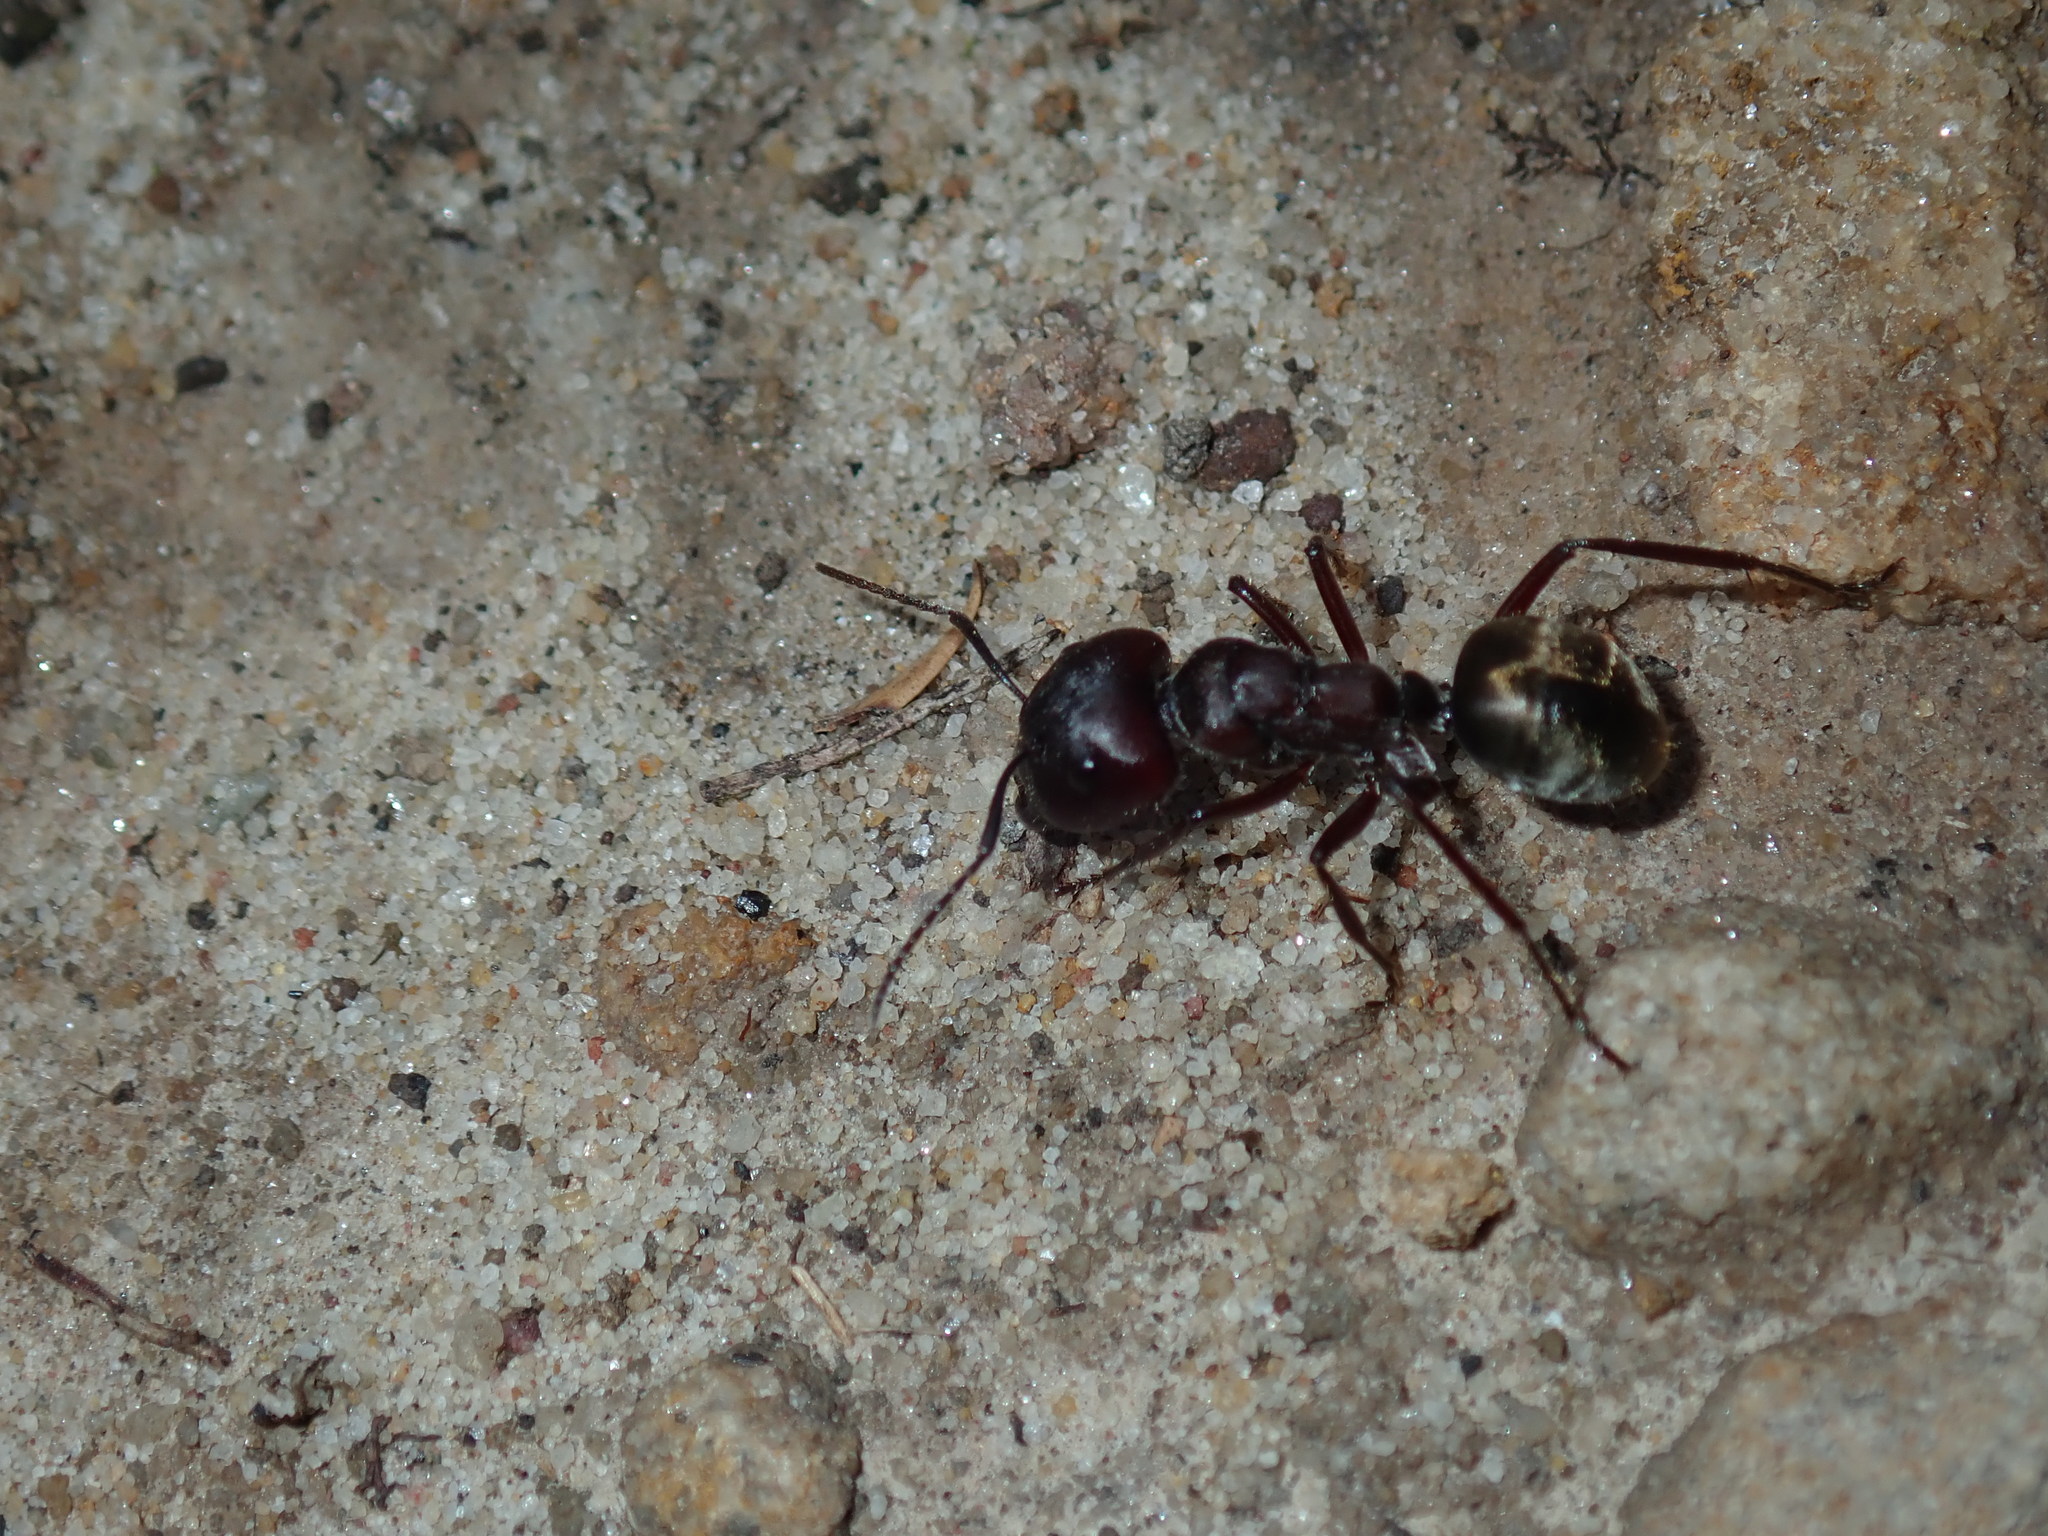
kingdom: Animalia
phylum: Arthropoda
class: Insecta
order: Hymenoptera
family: Formicidae
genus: Camponotus
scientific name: Camponotus suffusus
